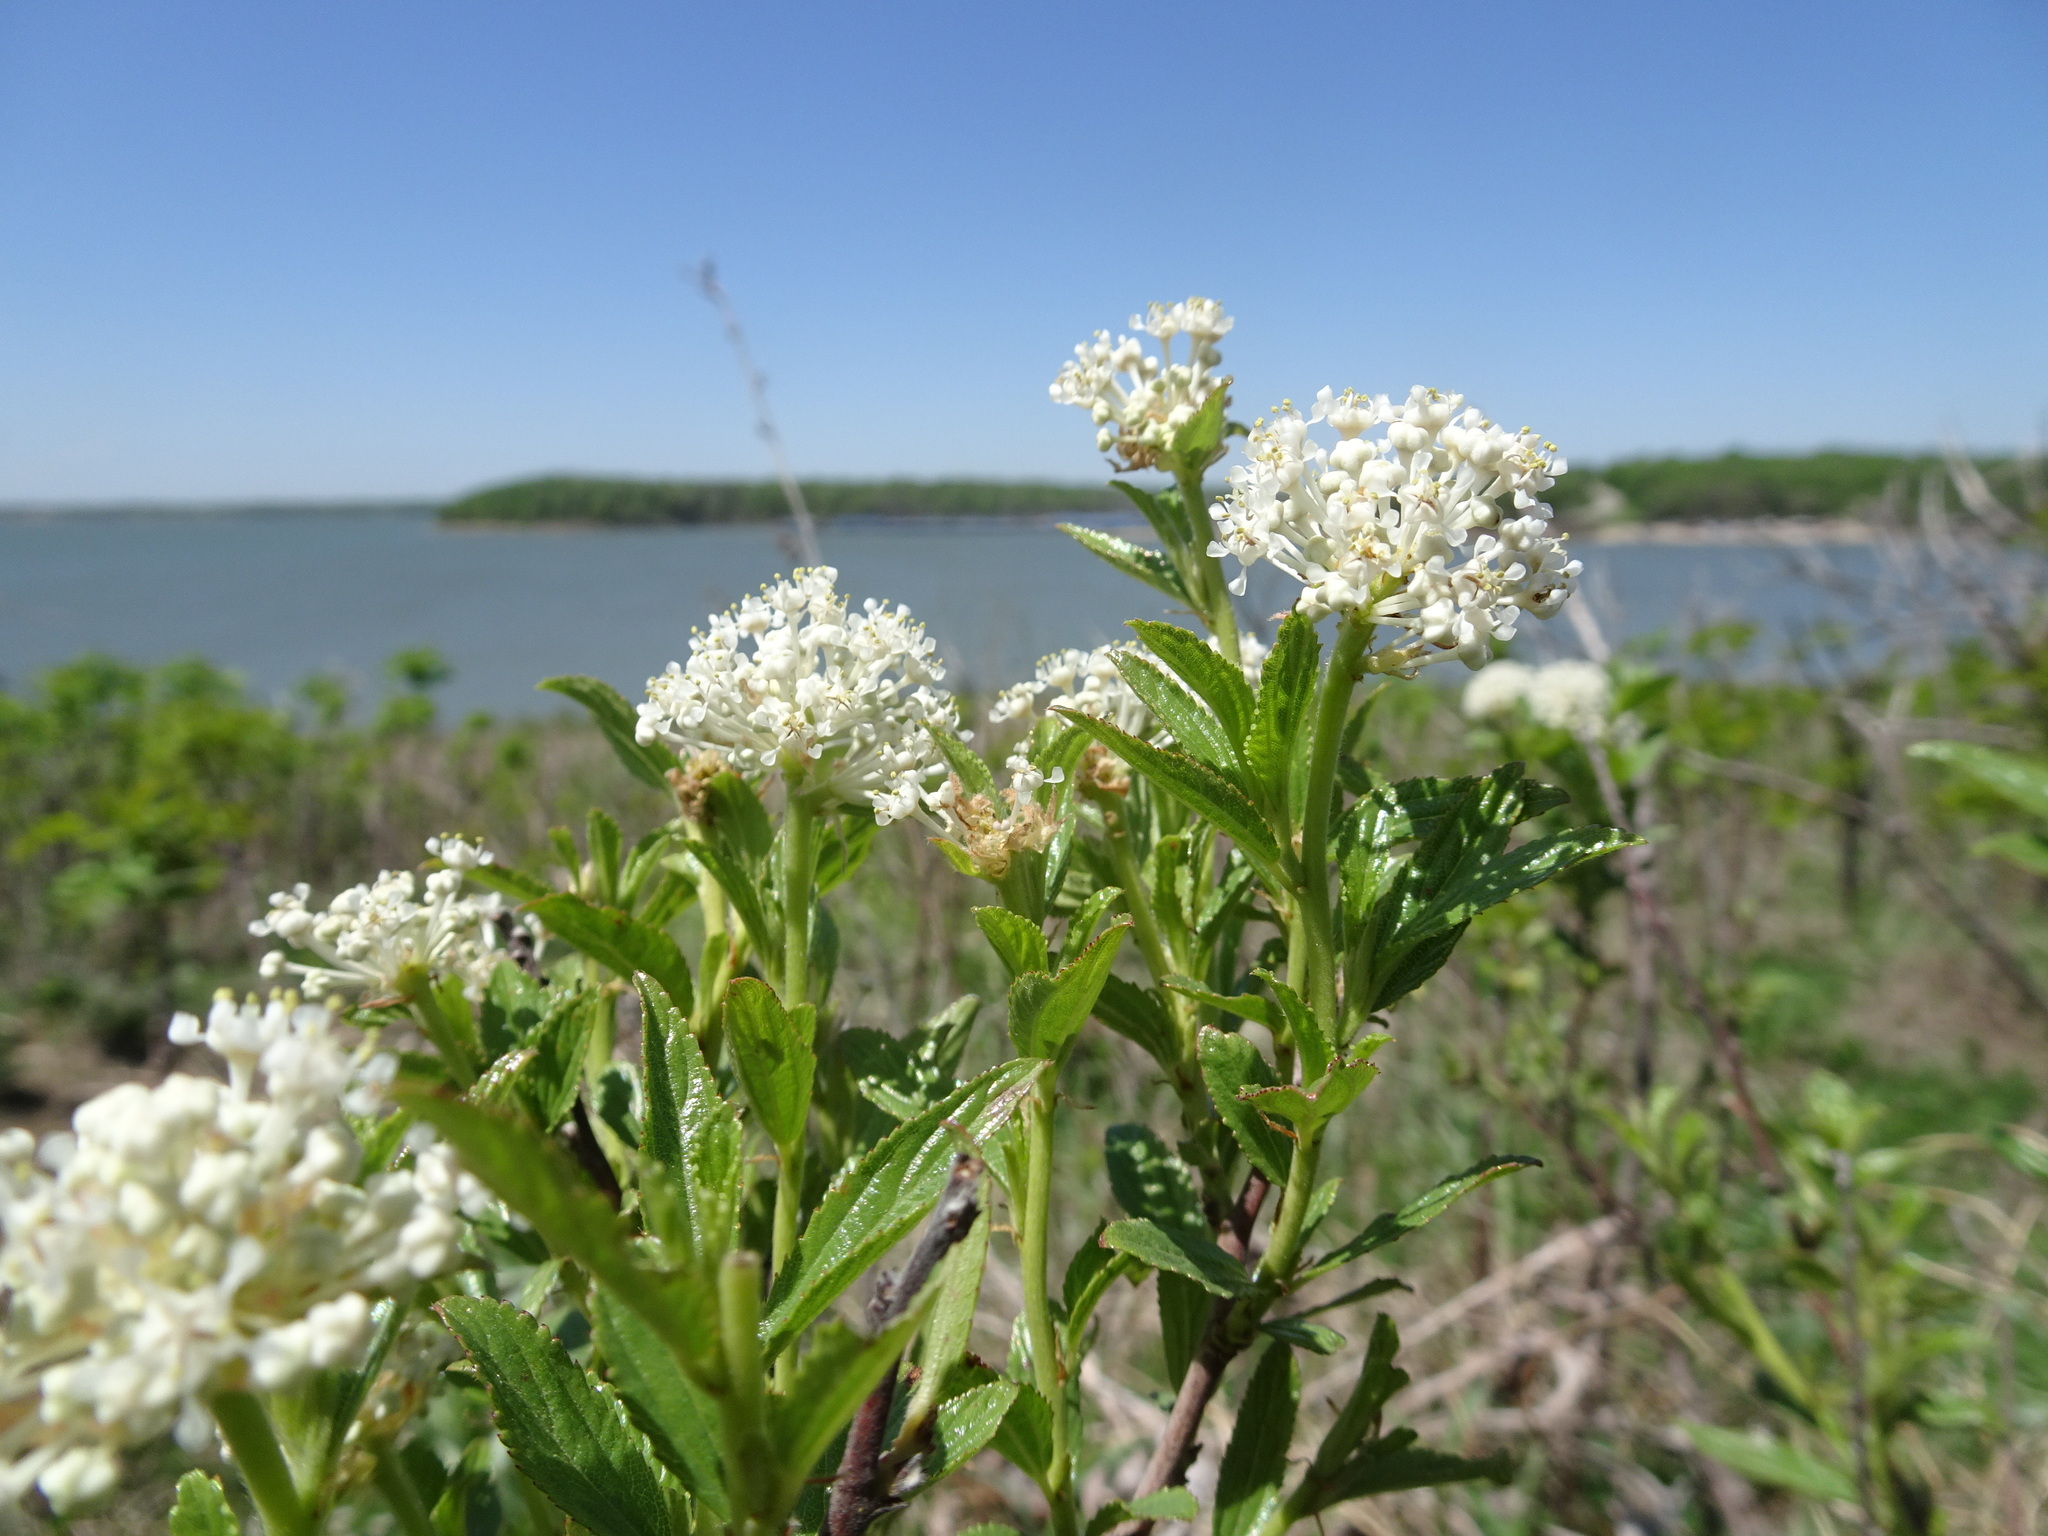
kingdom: Plantae
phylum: Tracheophyta
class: Magnoliopsida
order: Rosales
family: Rhamnaceae
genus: Ceanothus
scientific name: Ceanothus herbaceus
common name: Inland ceanothus
